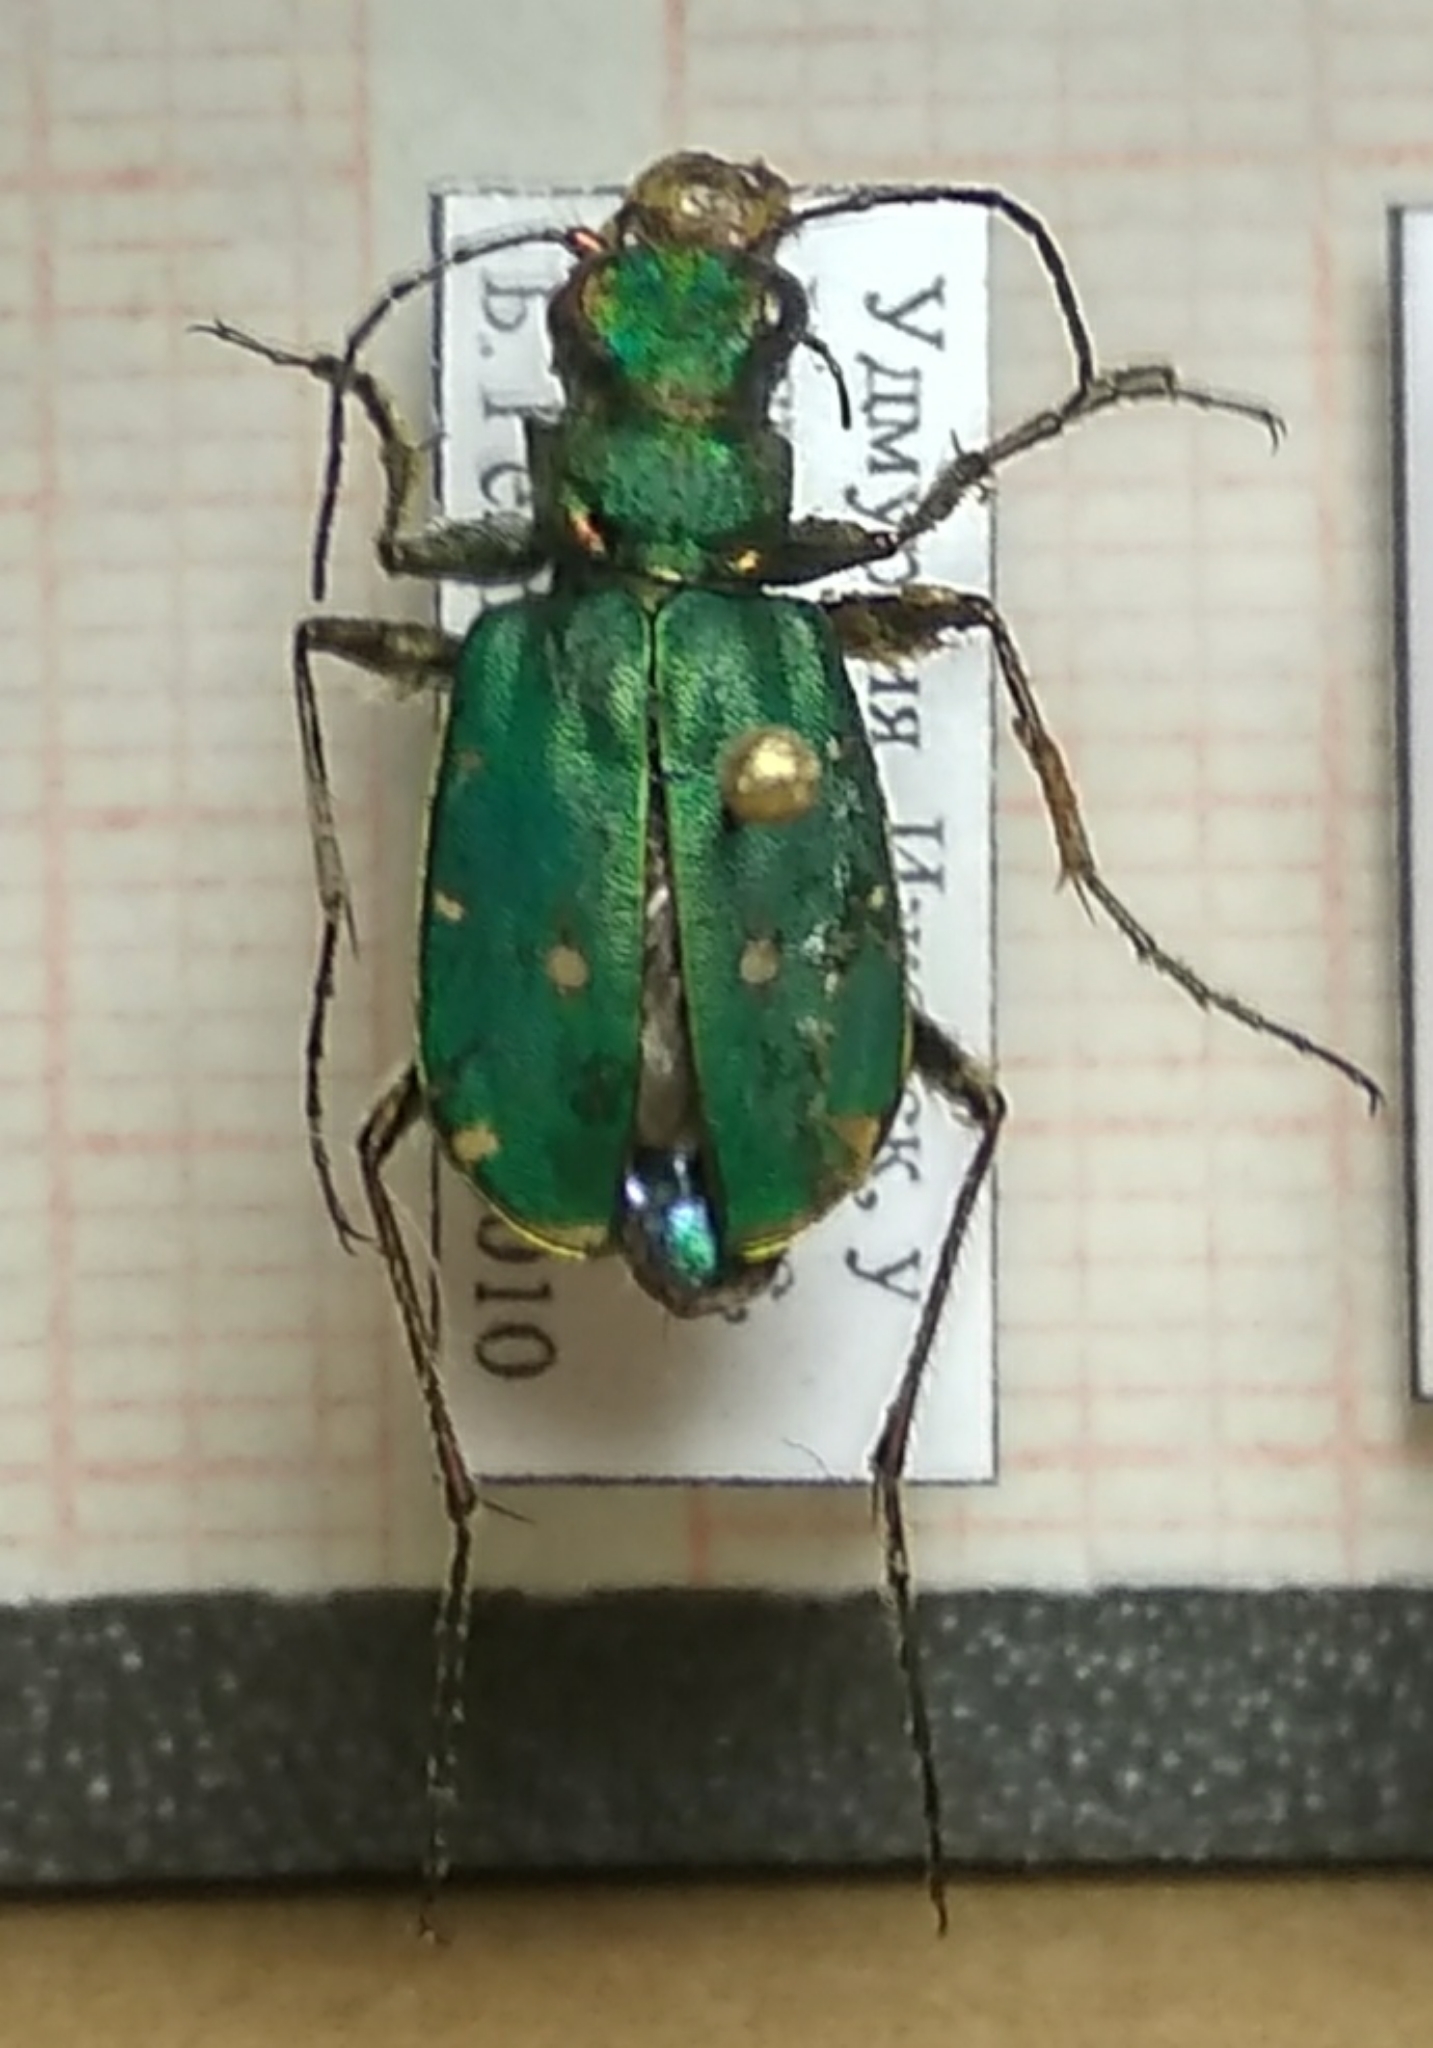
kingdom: Animalia
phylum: Arthropoda
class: Insecta
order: Coleoptera
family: Carabidae
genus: Cicindela
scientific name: Cicindela campestris
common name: Common tiger beetle
